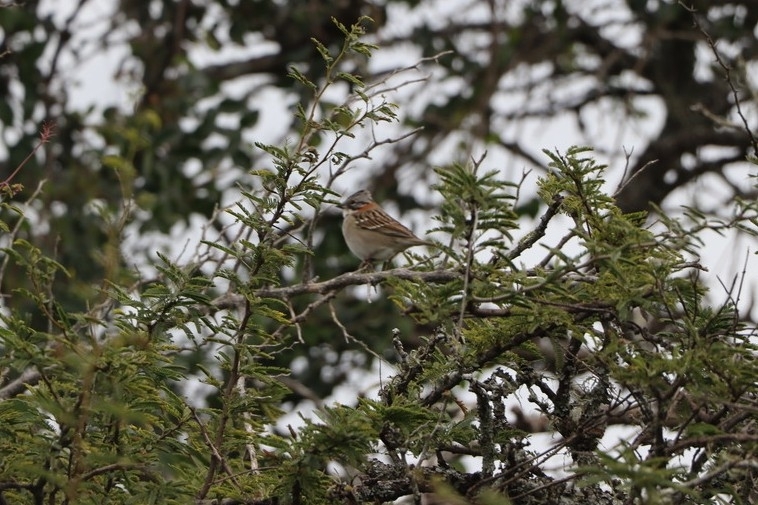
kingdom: Animalia
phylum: Chordata
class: Aves
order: Passeriformes
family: Passerellidae
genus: Zonotrichia
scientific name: Zonotrichia capensis
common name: Rufous-collared sparrow
